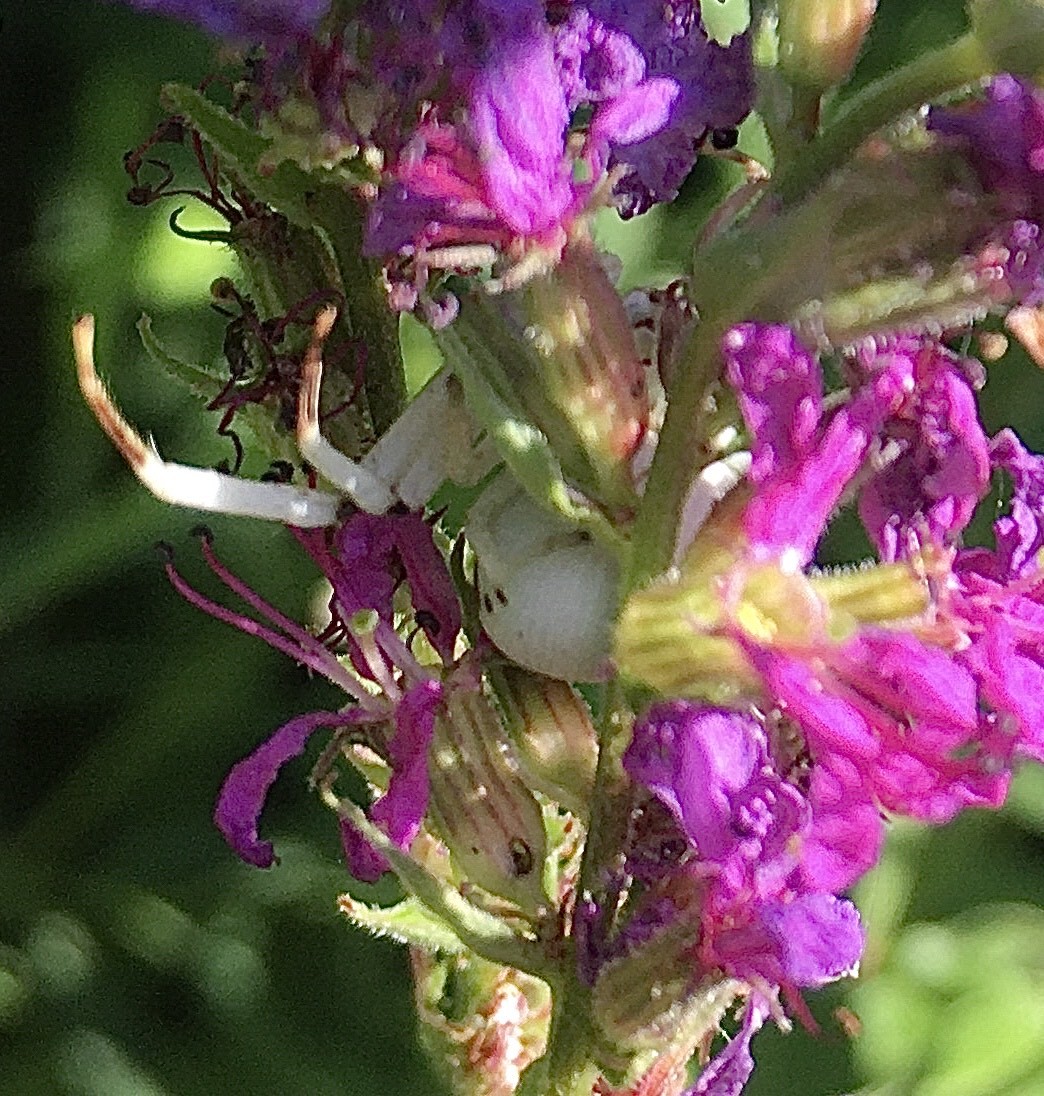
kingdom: Animalia
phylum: Arthropoda
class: Arachnida
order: Araneae
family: Thomisidae
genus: Misumenoides
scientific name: Misumenoides formosipes
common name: White-banded crab spider
